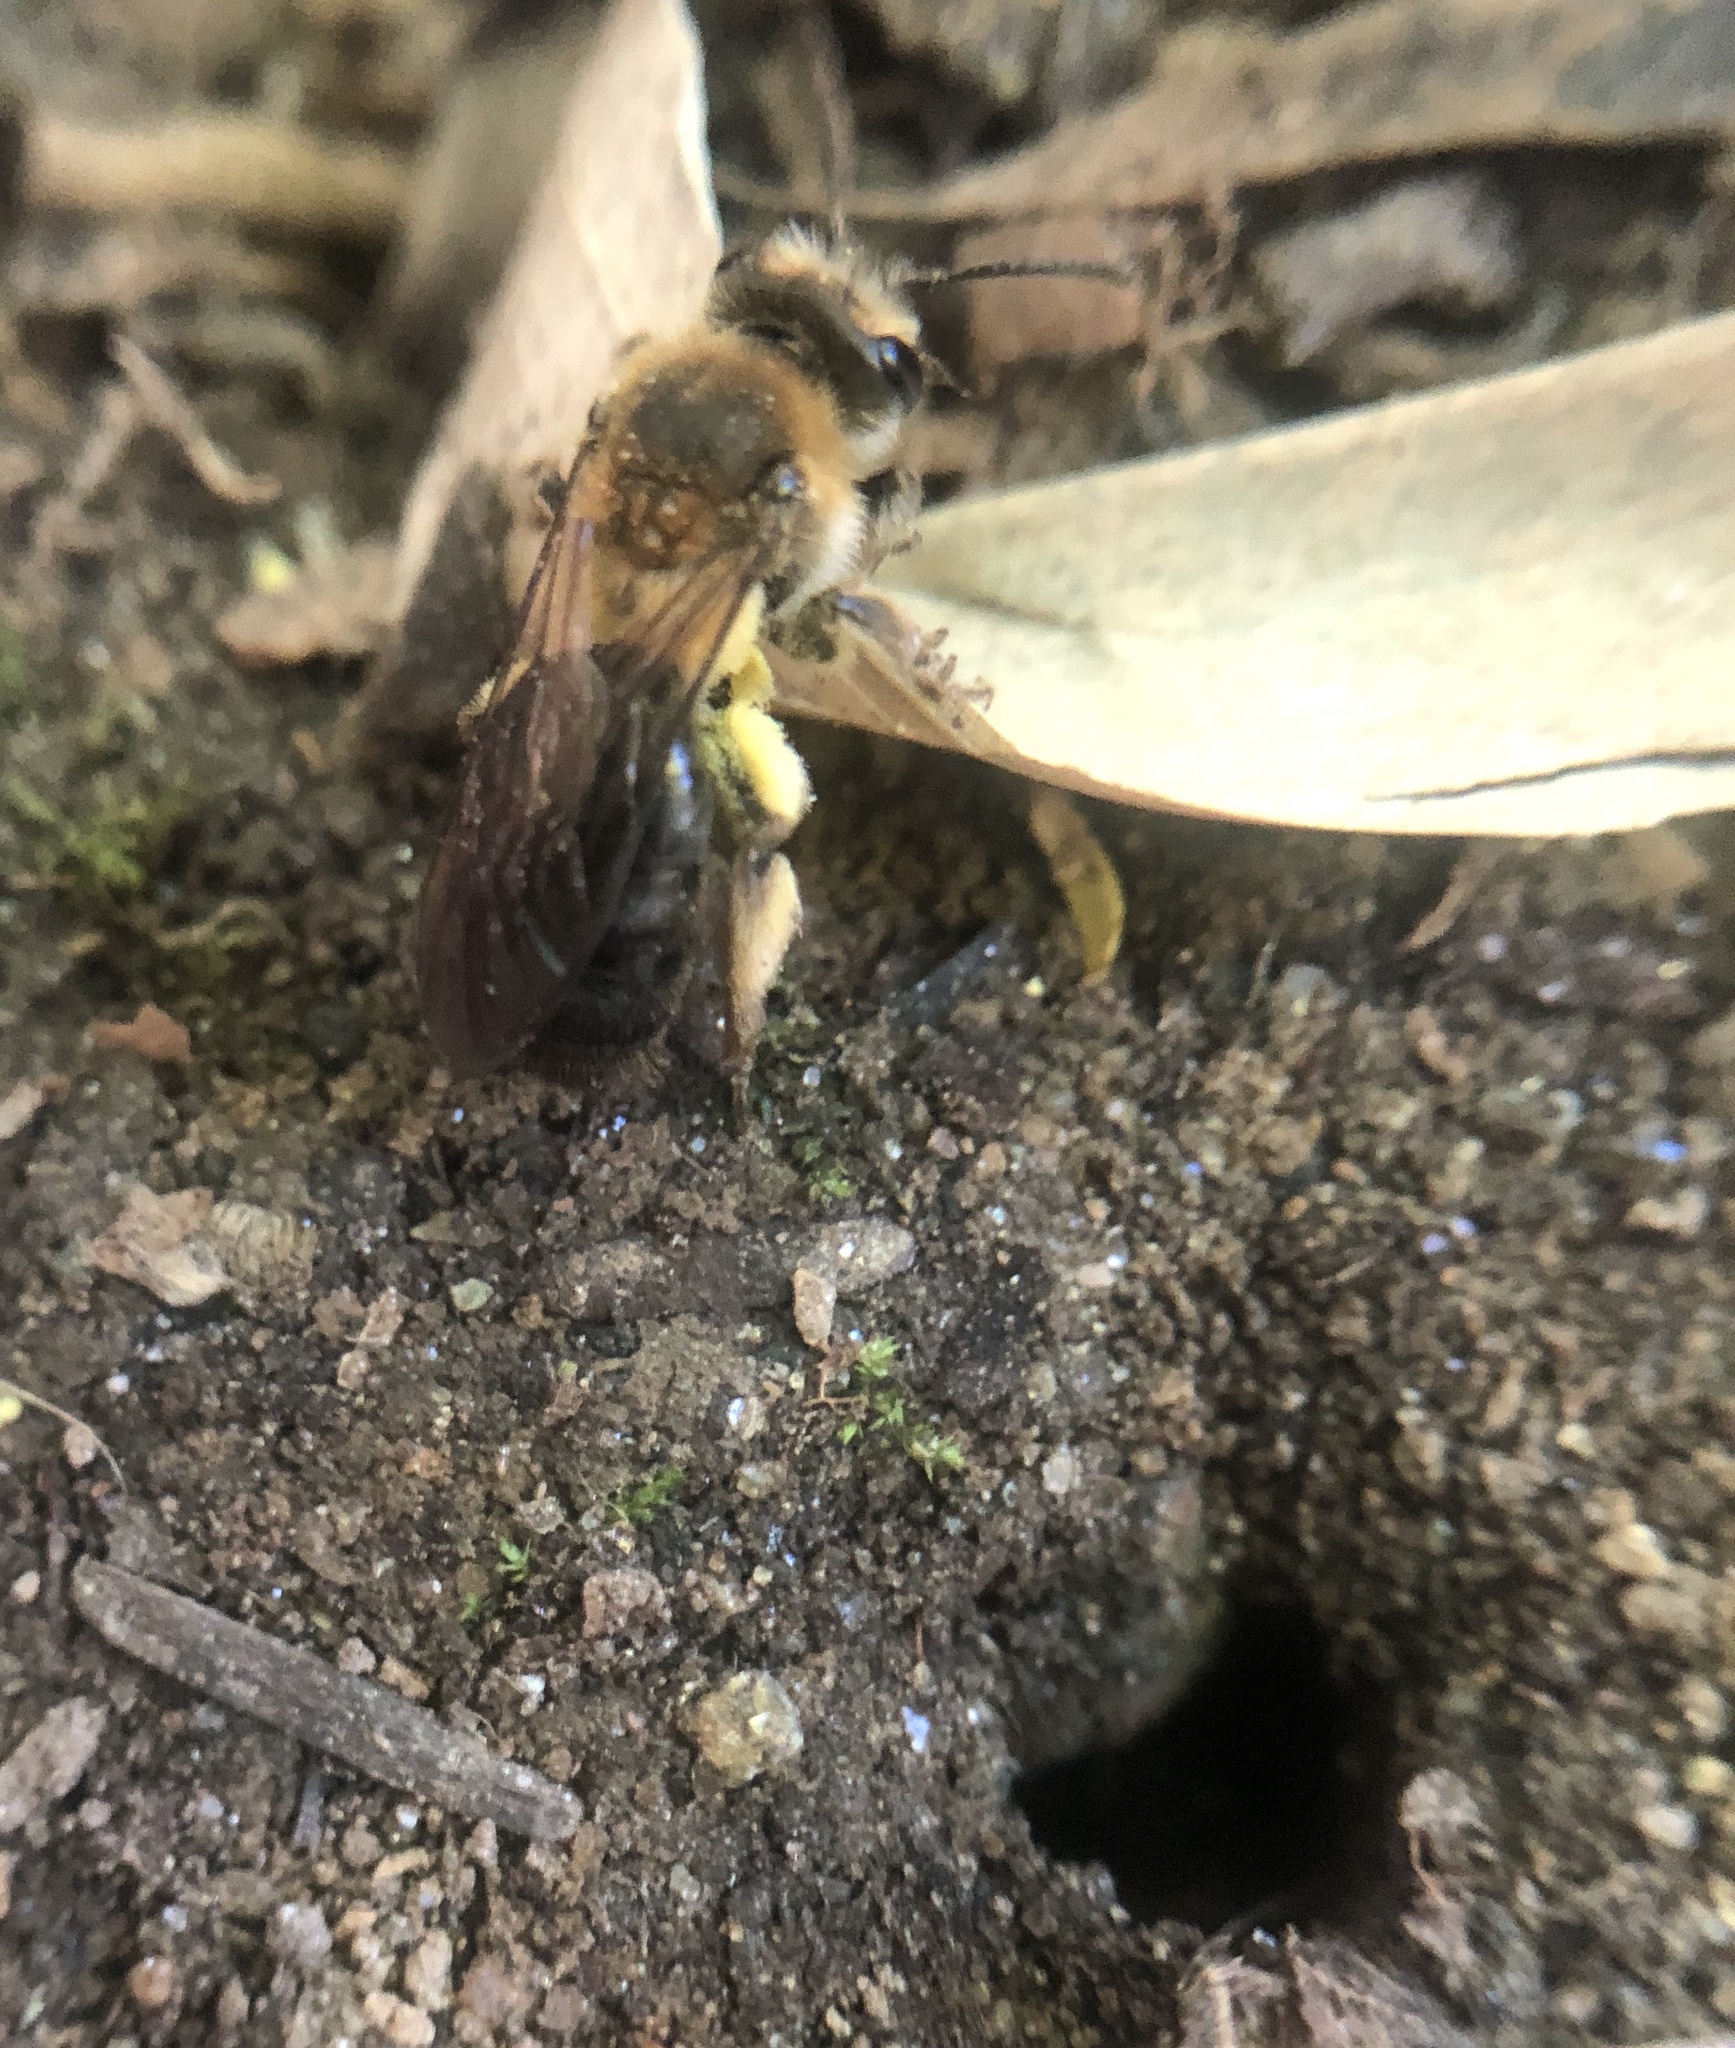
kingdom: Animalia
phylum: Arthropoda
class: Insecta
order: Hymenoptera
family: Andrenidae
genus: Andrena
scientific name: Andrena dunningi
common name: Dunning's miner
